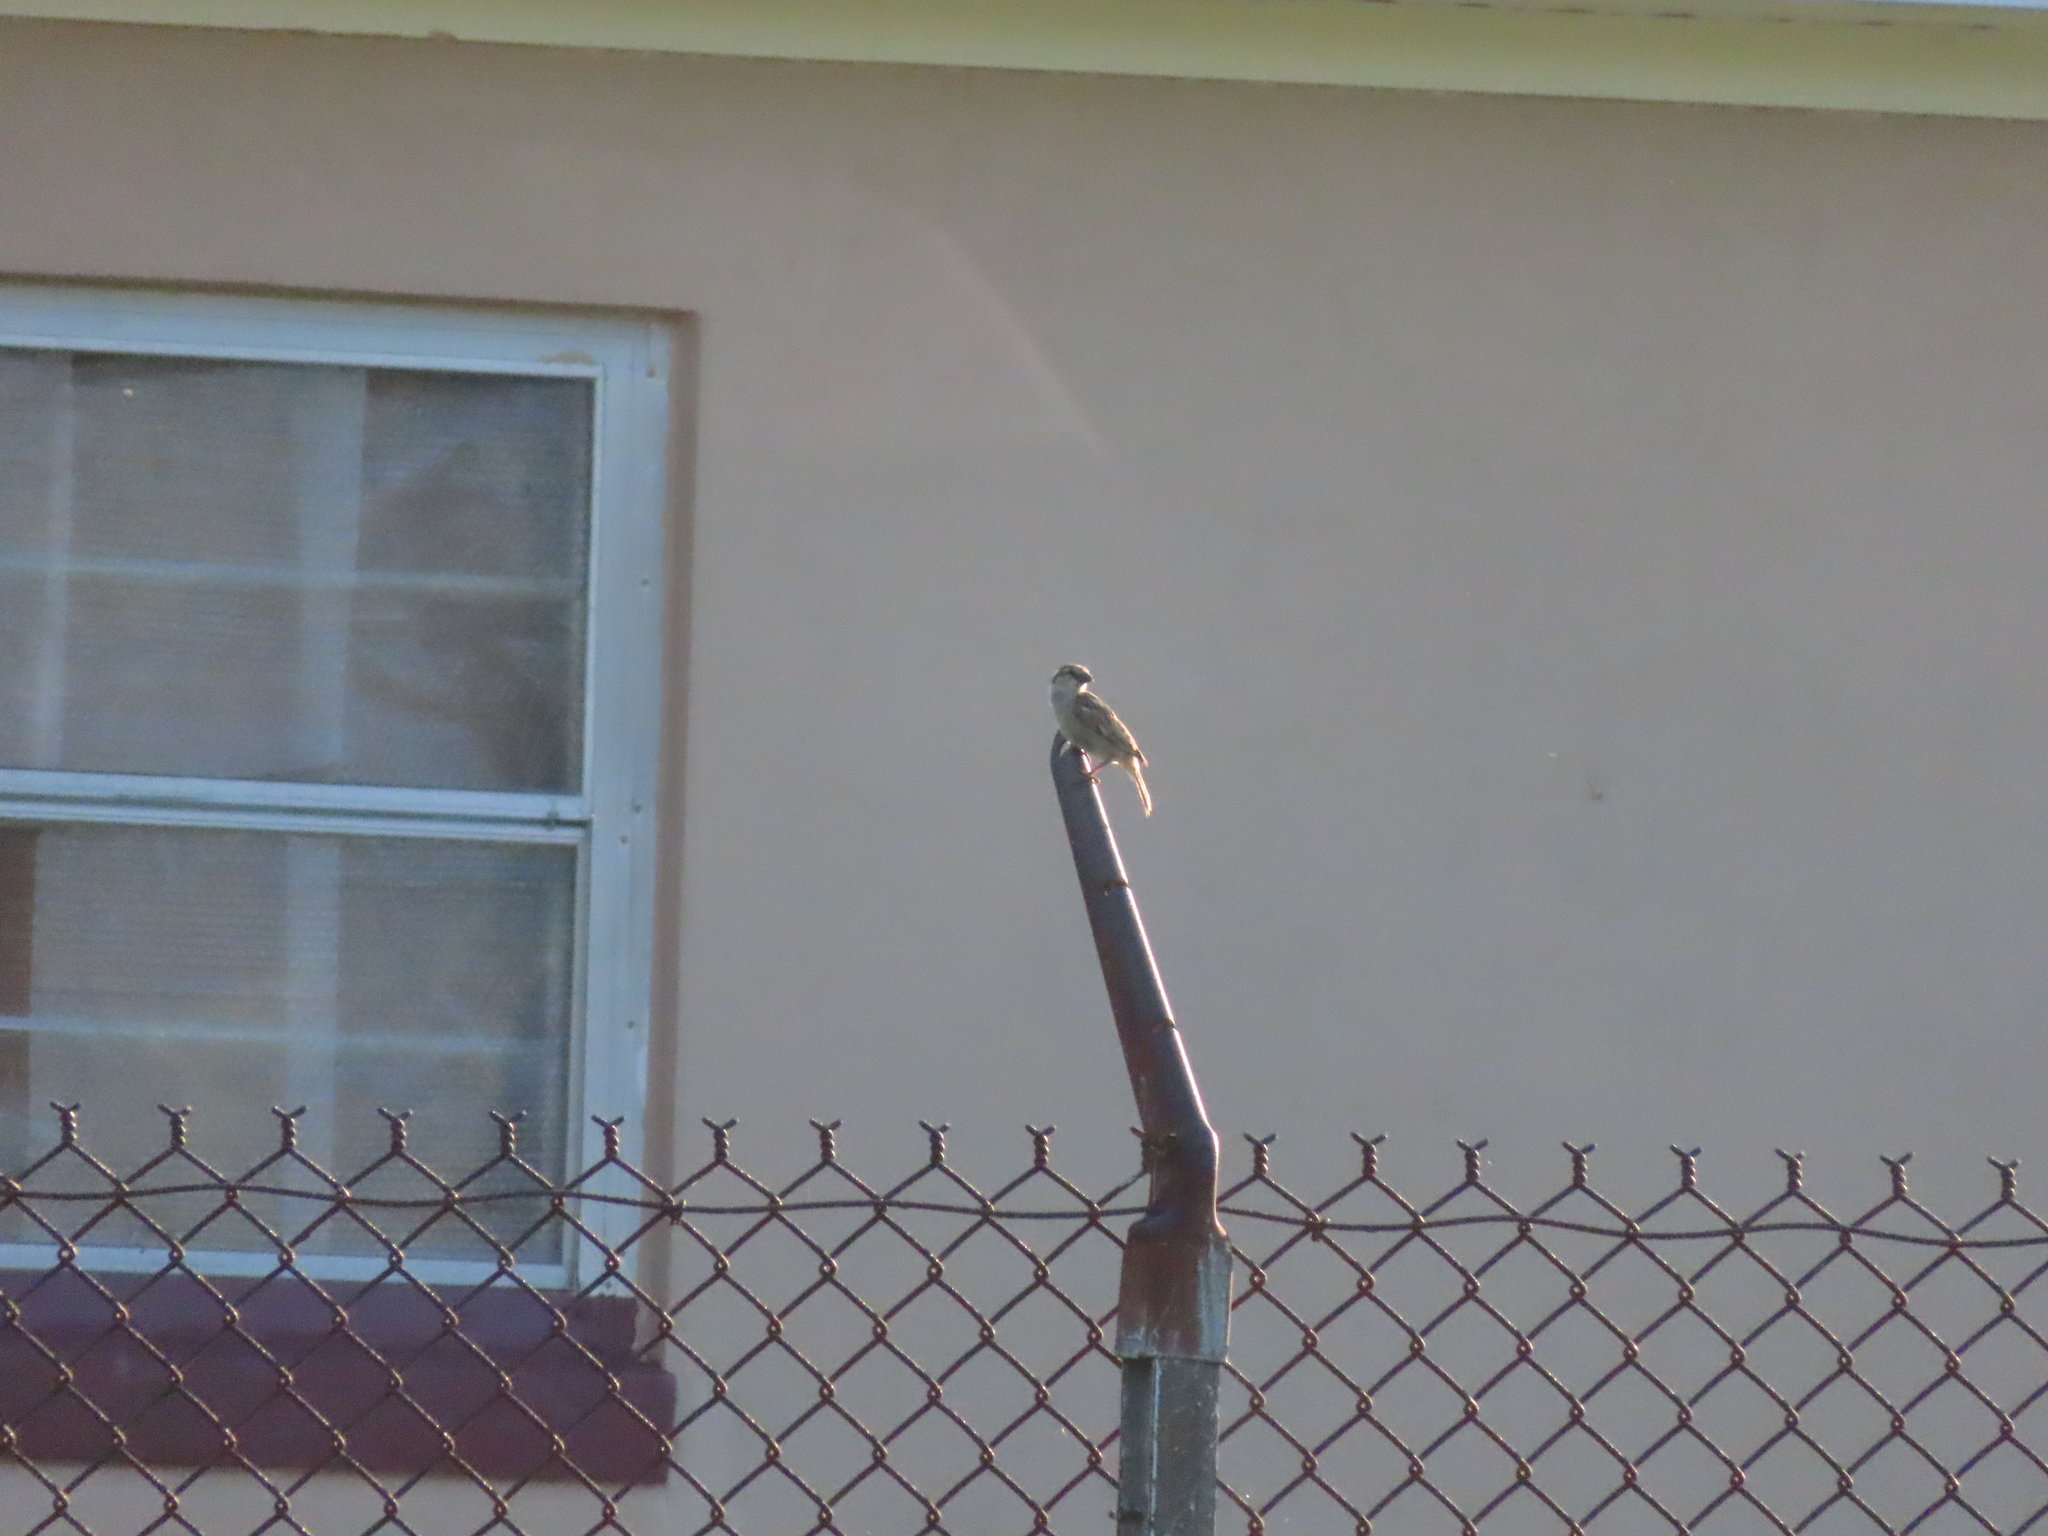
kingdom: Animalia
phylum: Chordata
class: Aves
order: Passeriformes
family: Passeridae
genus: Passer
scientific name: Passer domesticus
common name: House sparrow
